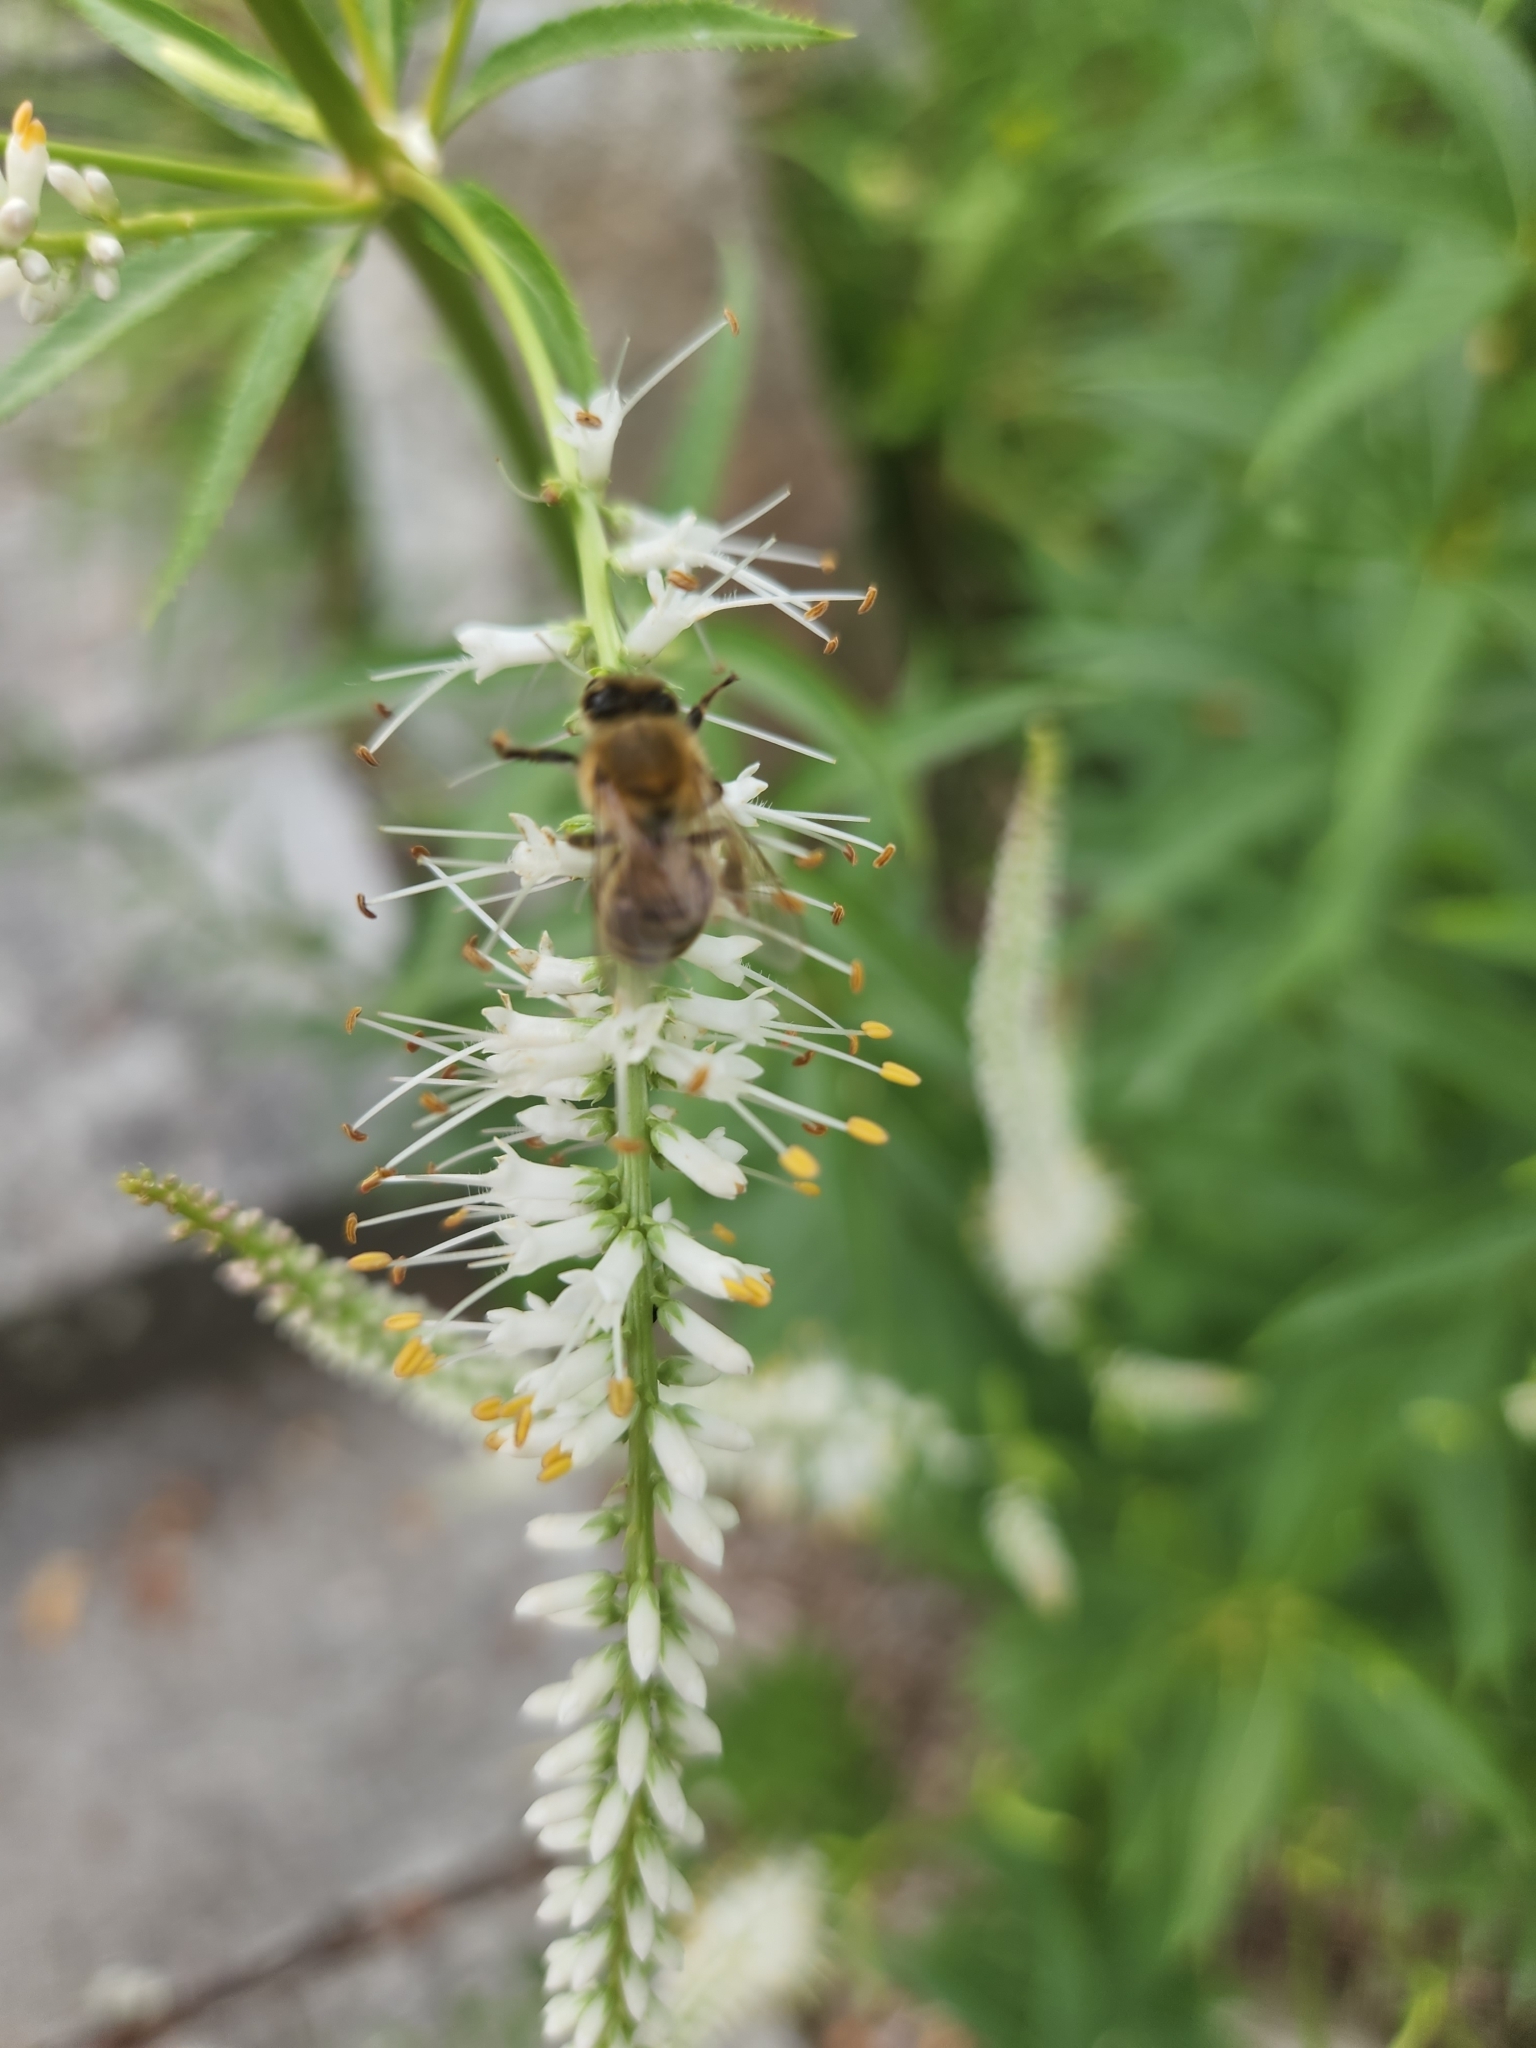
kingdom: Animalia
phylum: Arthropoda
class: Insecta
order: Hymenoptera
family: Apidae
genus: Apis
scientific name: Apis mellifera
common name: Honey bee
